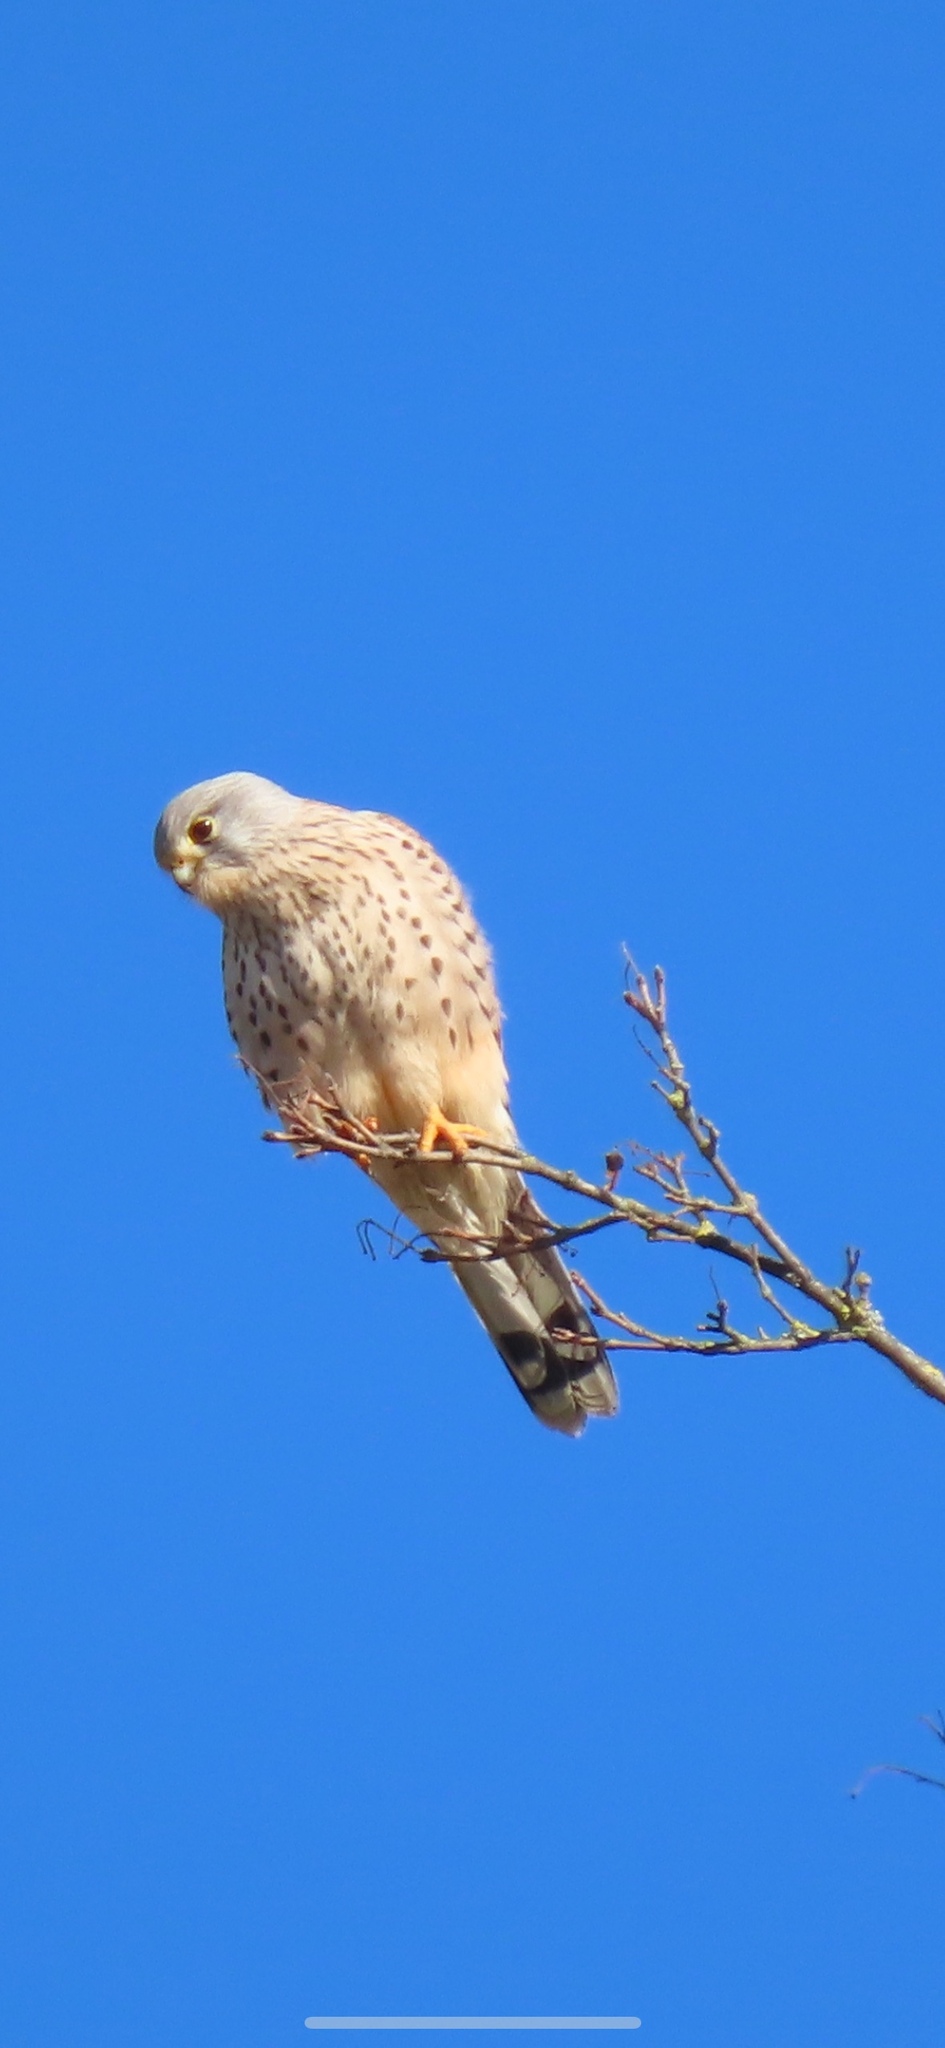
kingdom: Animalia
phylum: Chordata
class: Aves
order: Falconiformes
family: Falconidae
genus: Falco
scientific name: Falco tinnunculus
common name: Common kestrel
